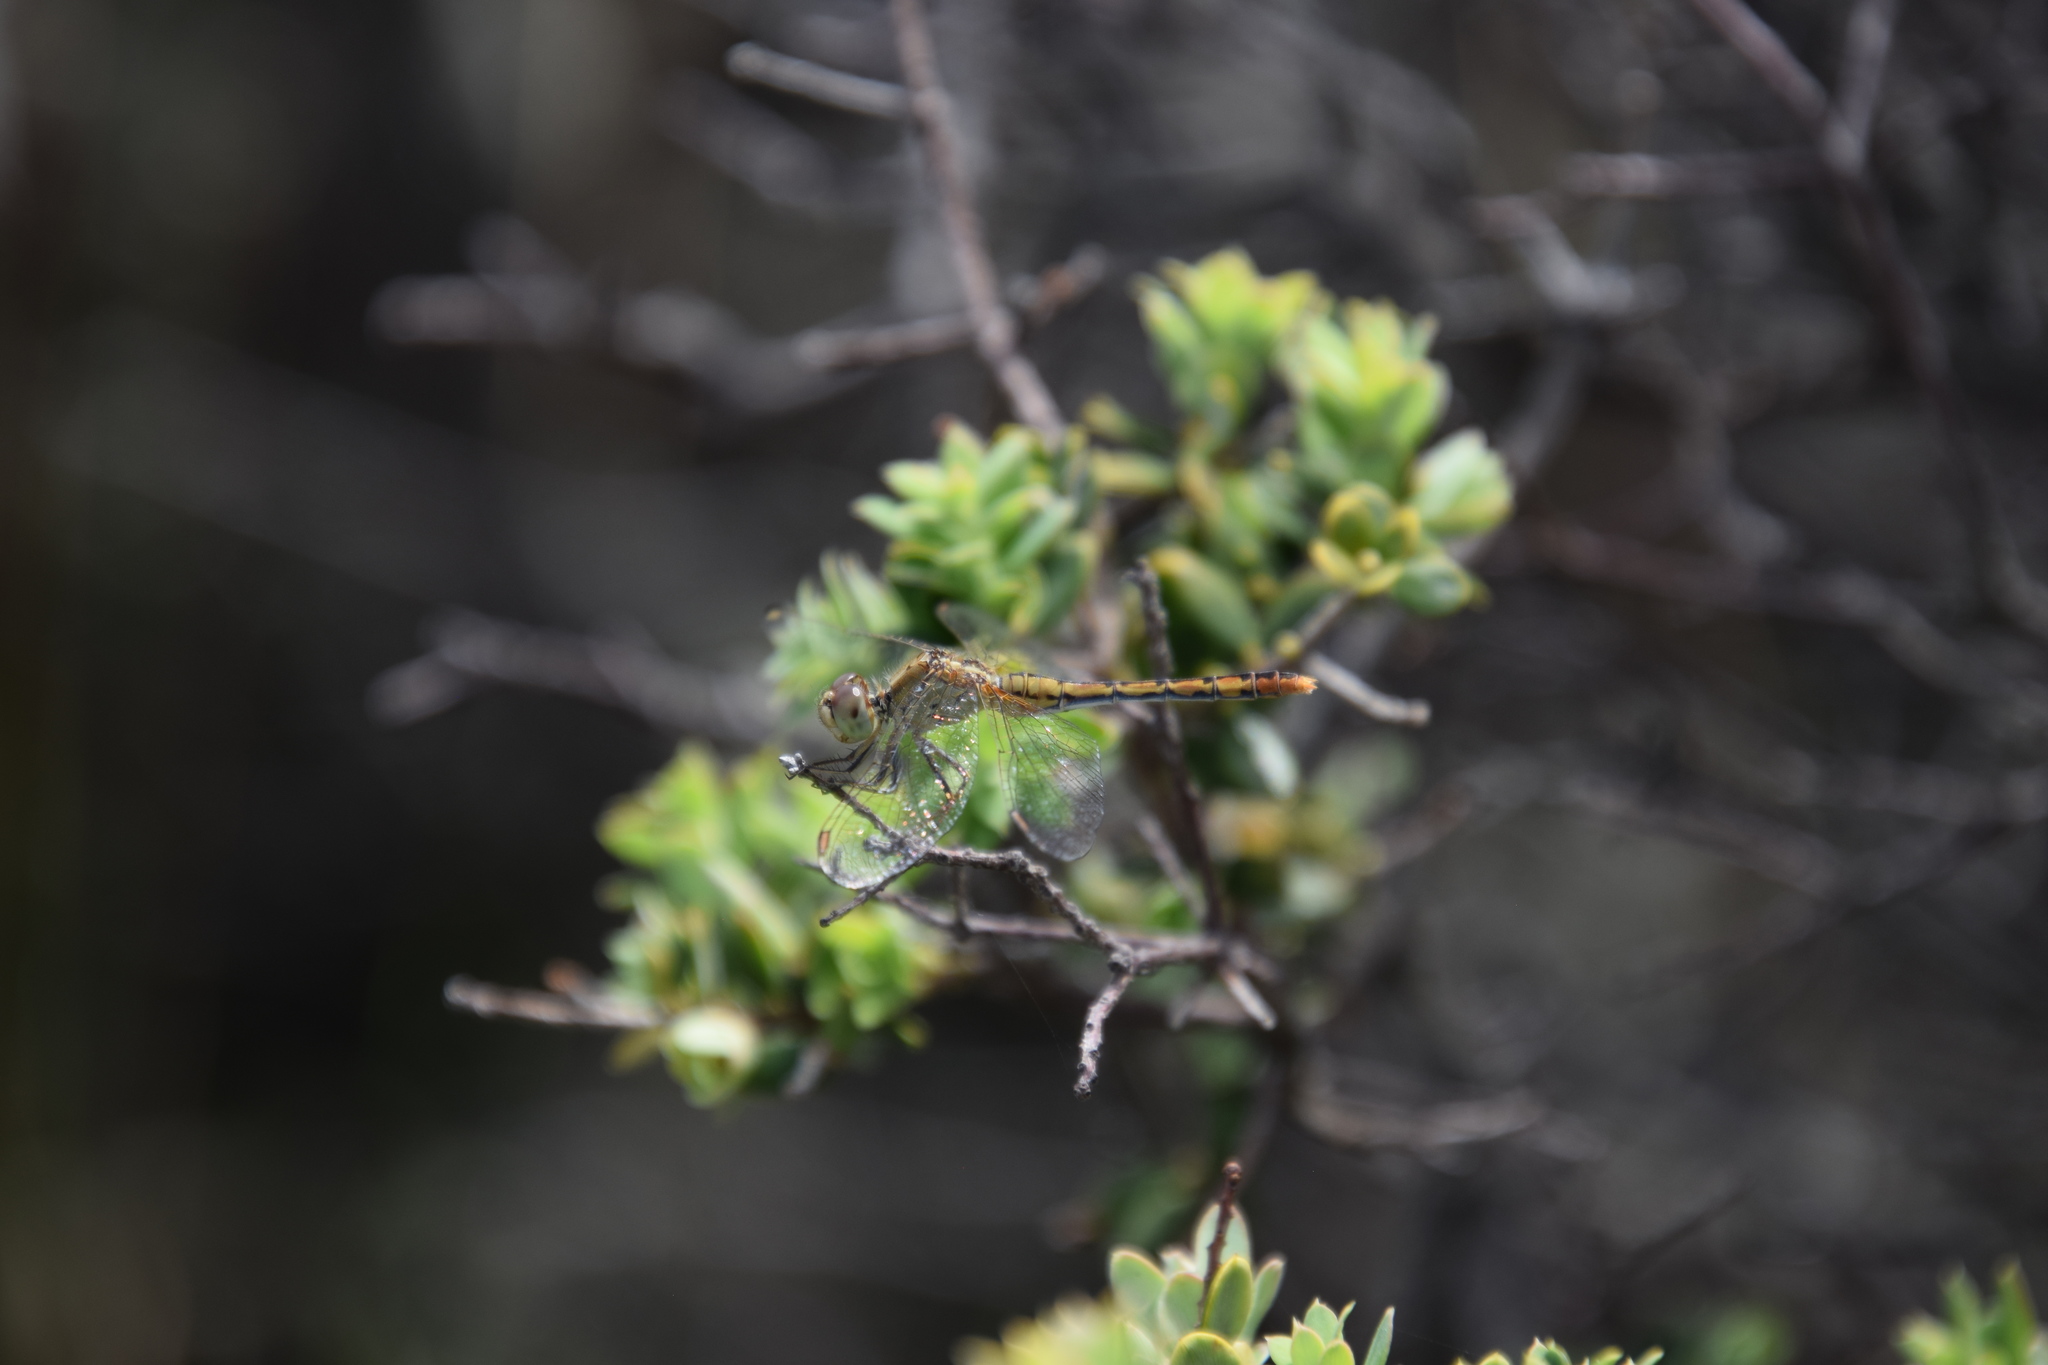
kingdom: Animalia
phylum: Arthropoda
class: Insecta
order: Odonata
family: Libellulidae
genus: Diplacodes
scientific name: Diplacodes bipunctata
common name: Red percher dragonfly
